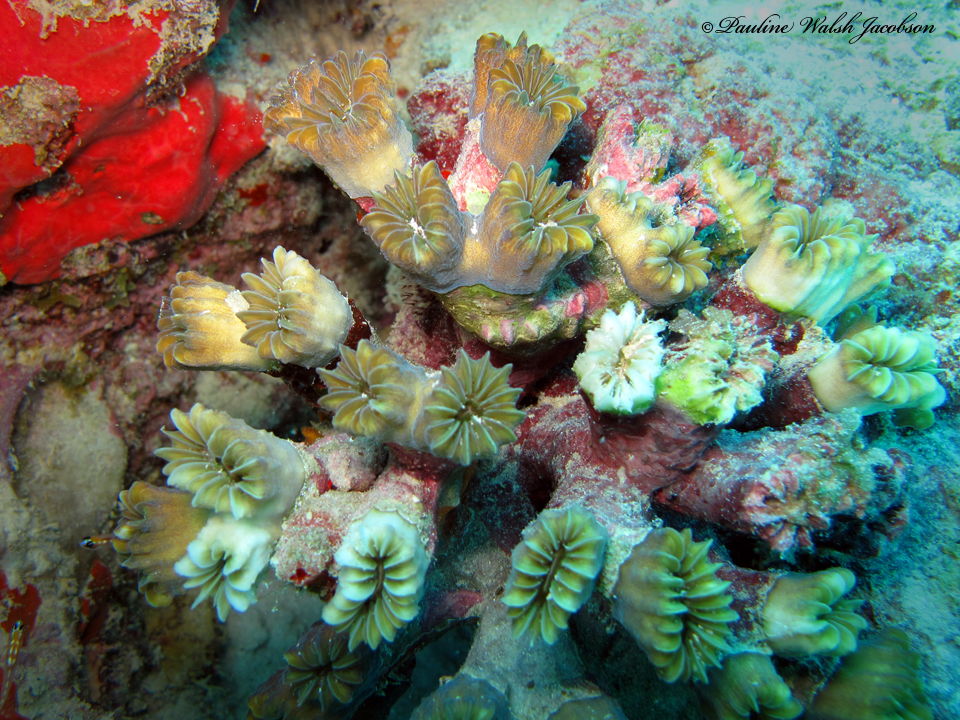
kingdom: Animalia
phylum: Cnidaria
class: Anthozoa
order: Scleractinia
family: Meandrinidae
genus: Eusmilia
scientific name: Eusmilia fastigiata
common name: Smooth flower coral
